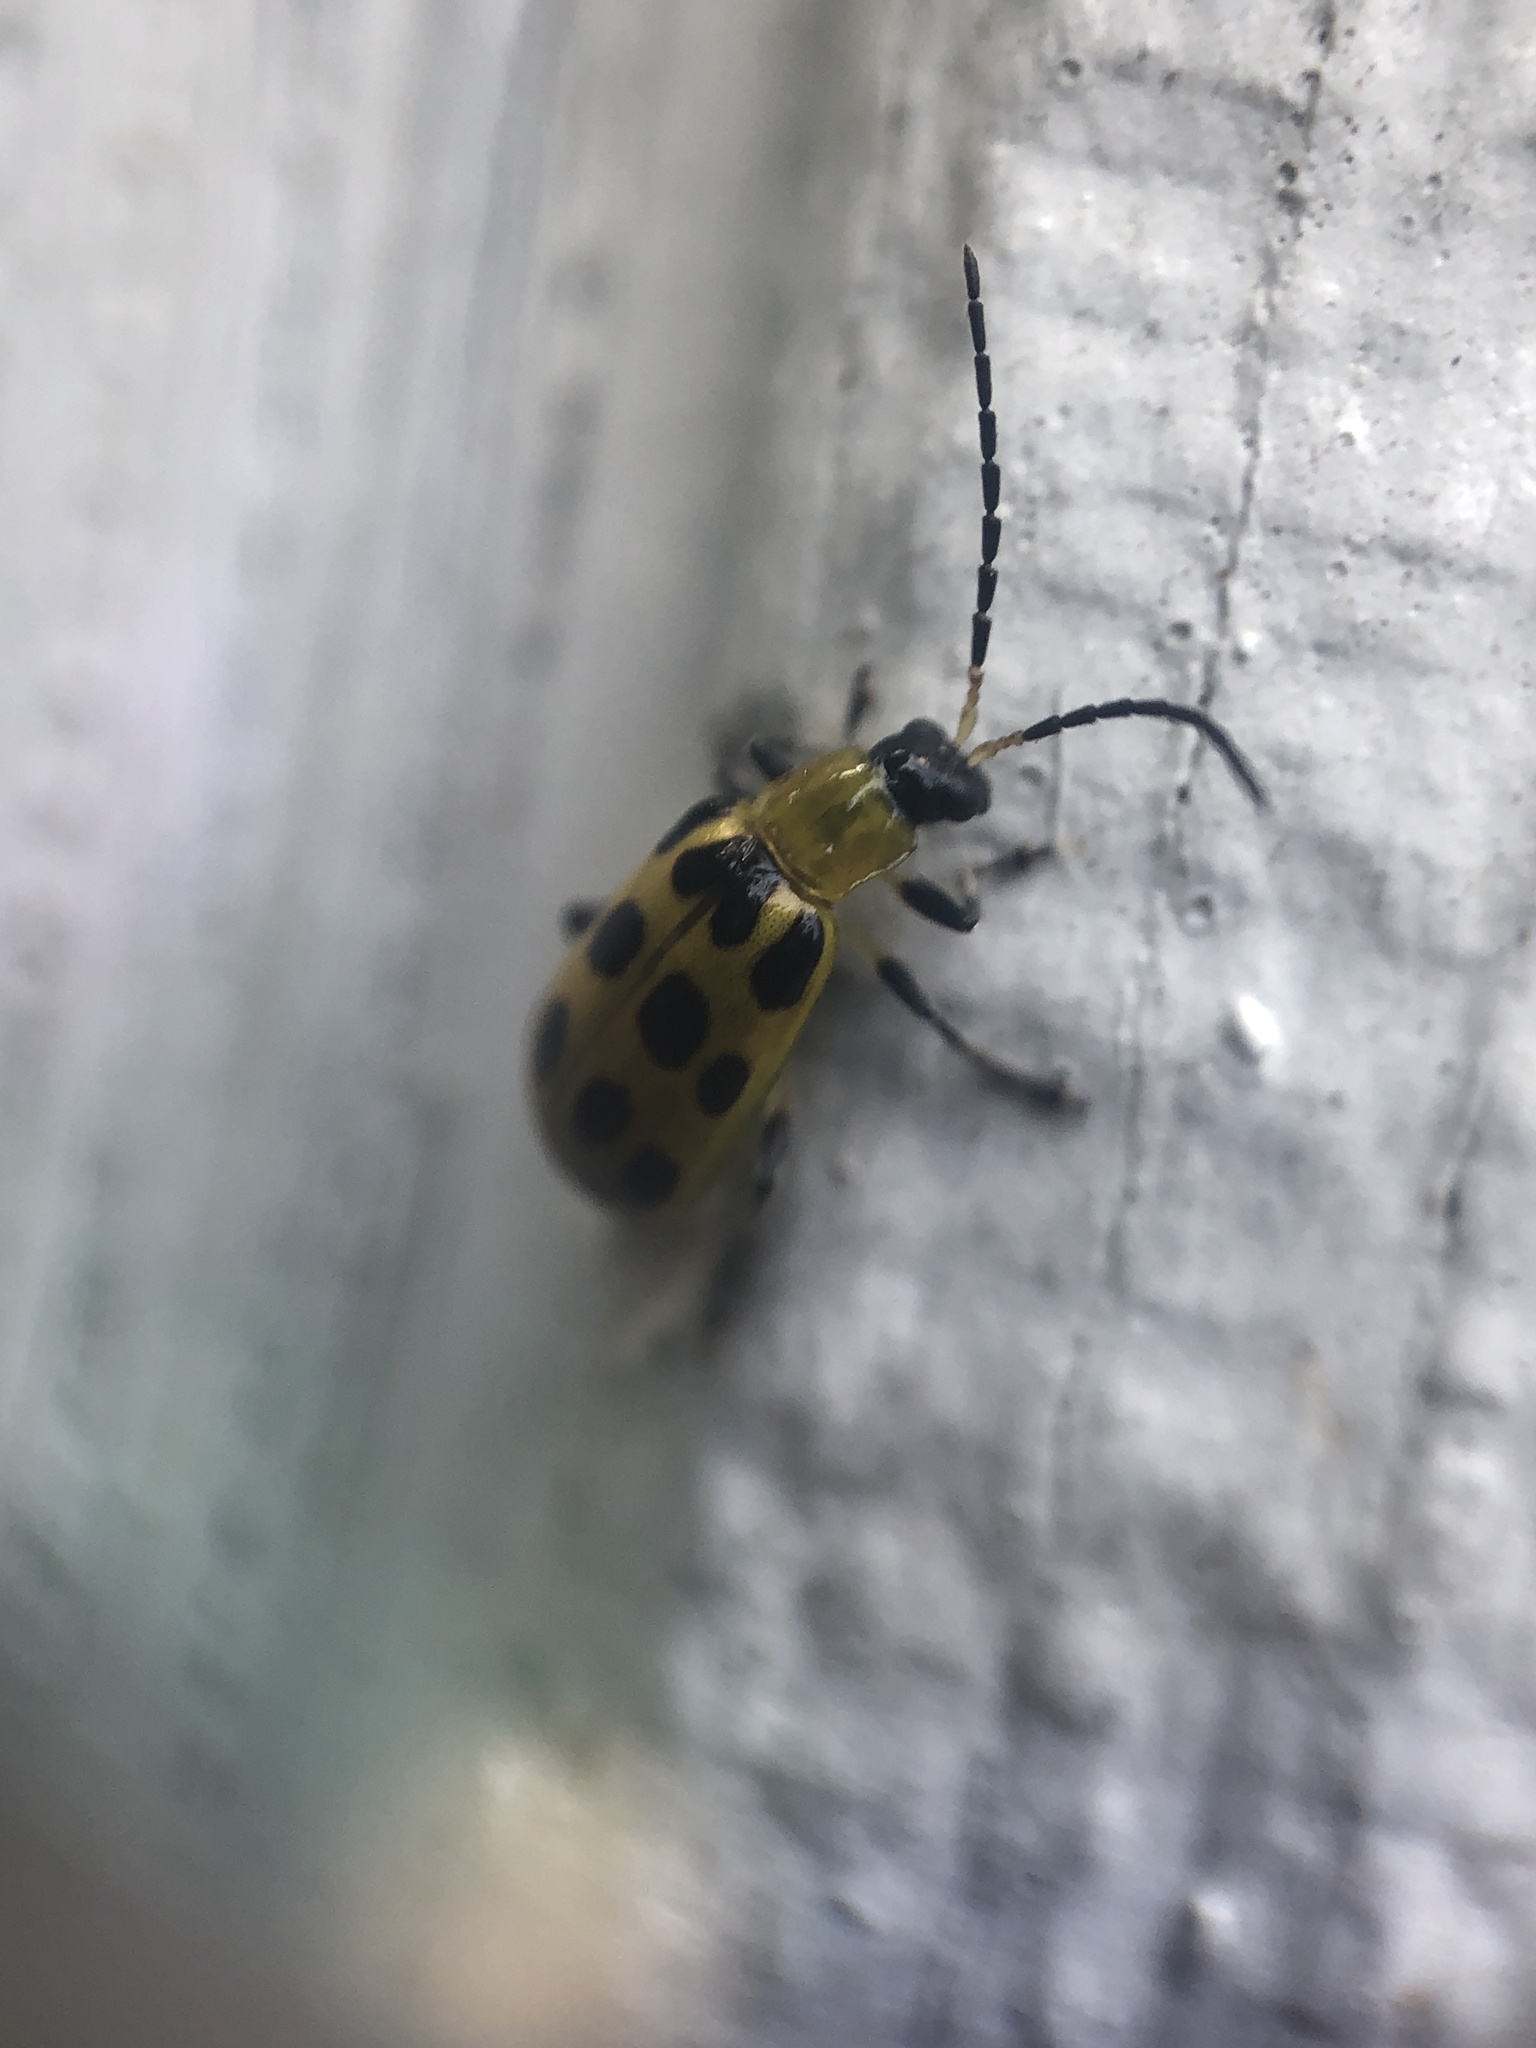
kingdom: Animalia
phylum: Arthropoda
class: Insecta
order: Coleoptera
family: Chrysomelidae
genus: Diabrotica
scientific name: Diabrotica undecimpunctata
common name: Spotted cucumber beetle
